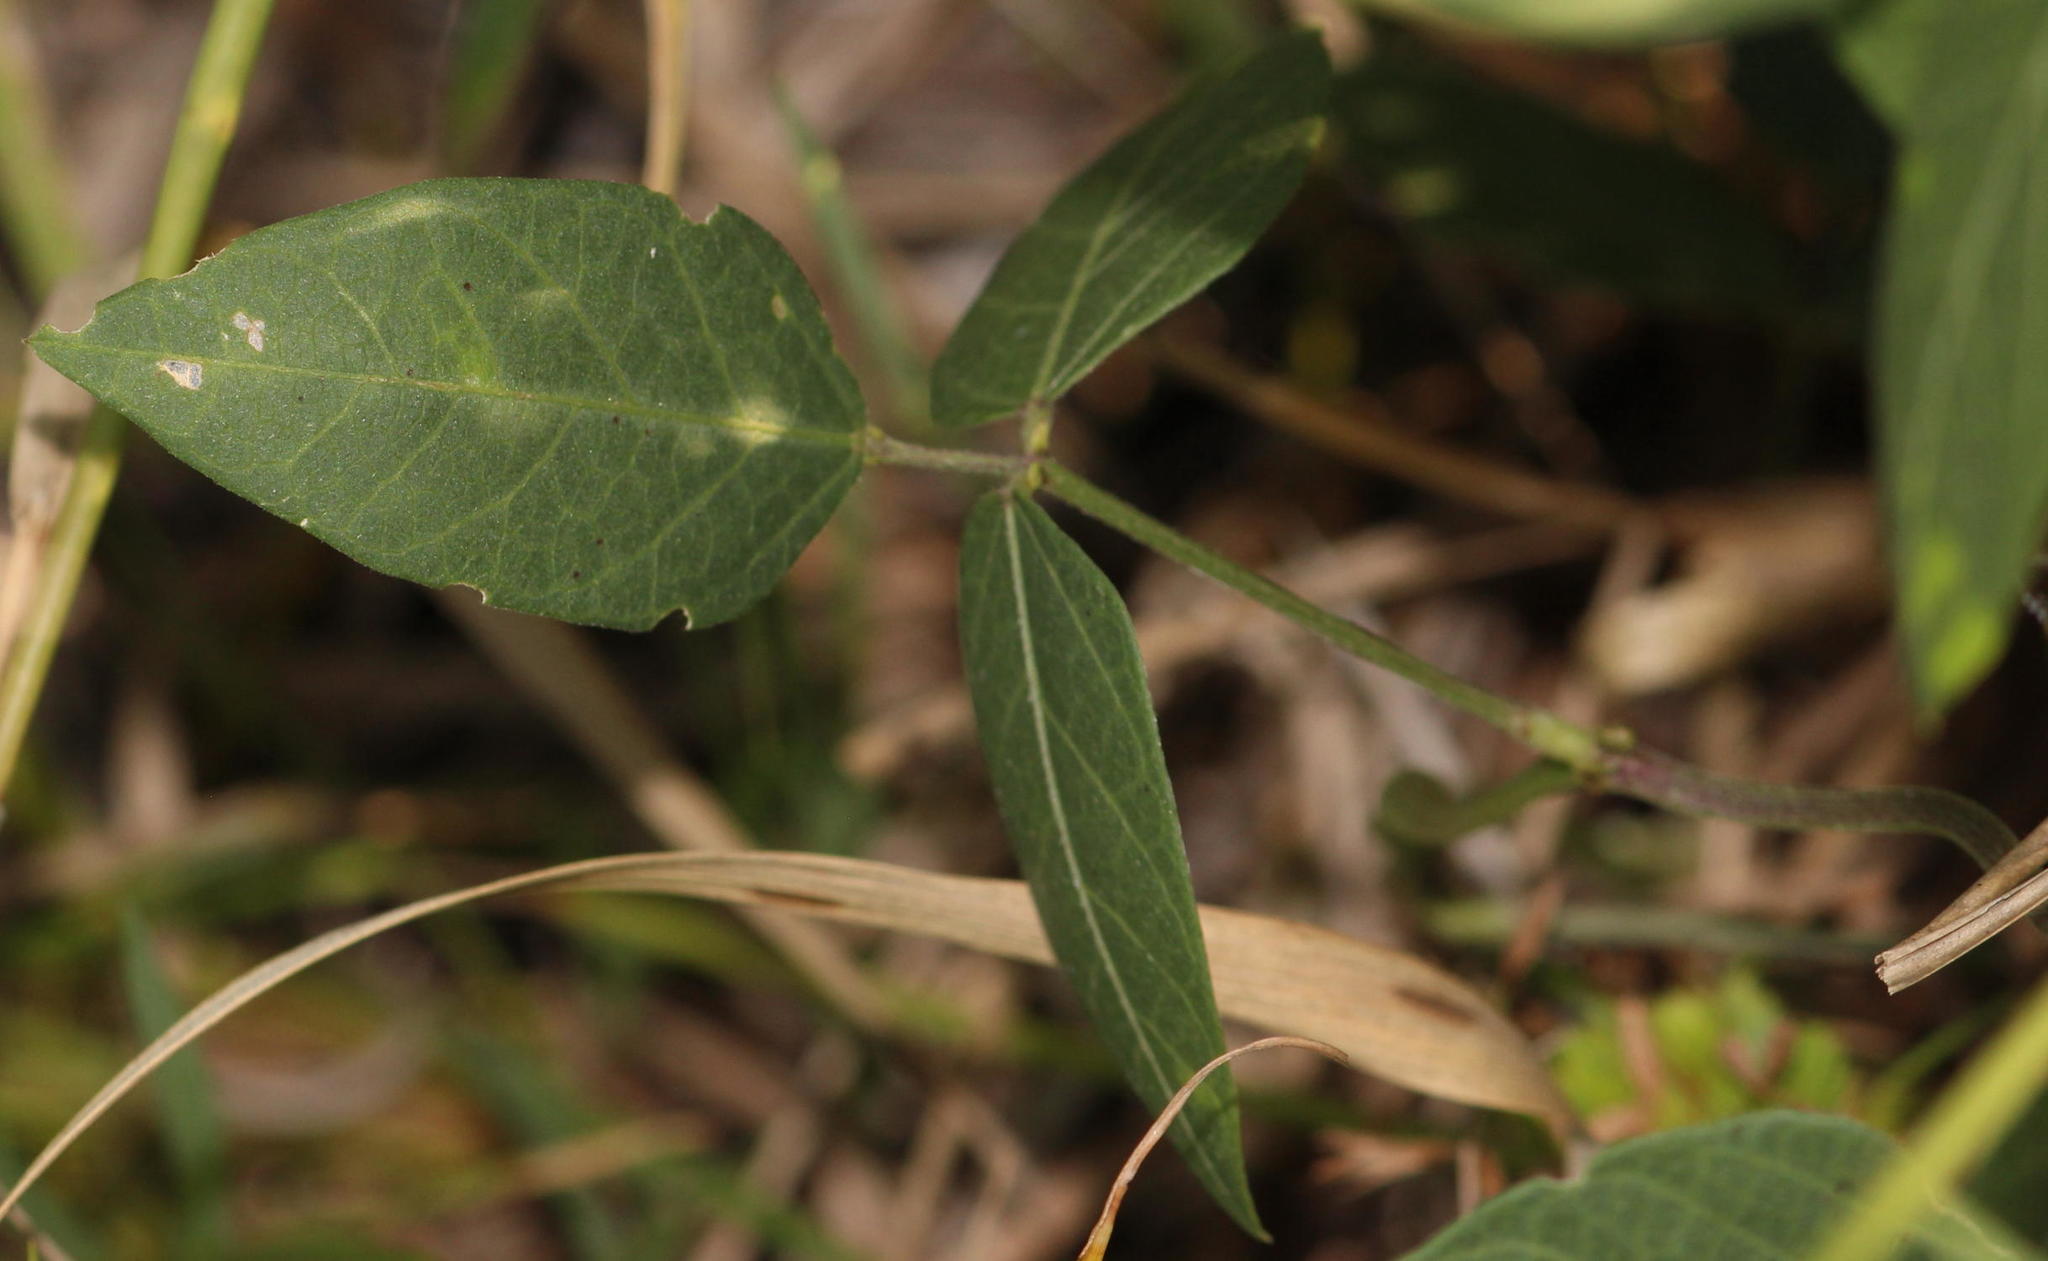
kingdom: Plantae
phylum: Tracheophyta
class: Magnoliopsida
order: Fabales
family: Fabaceae
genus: Vigna
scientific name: Vigna luteola
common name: Hairypod cowpea
